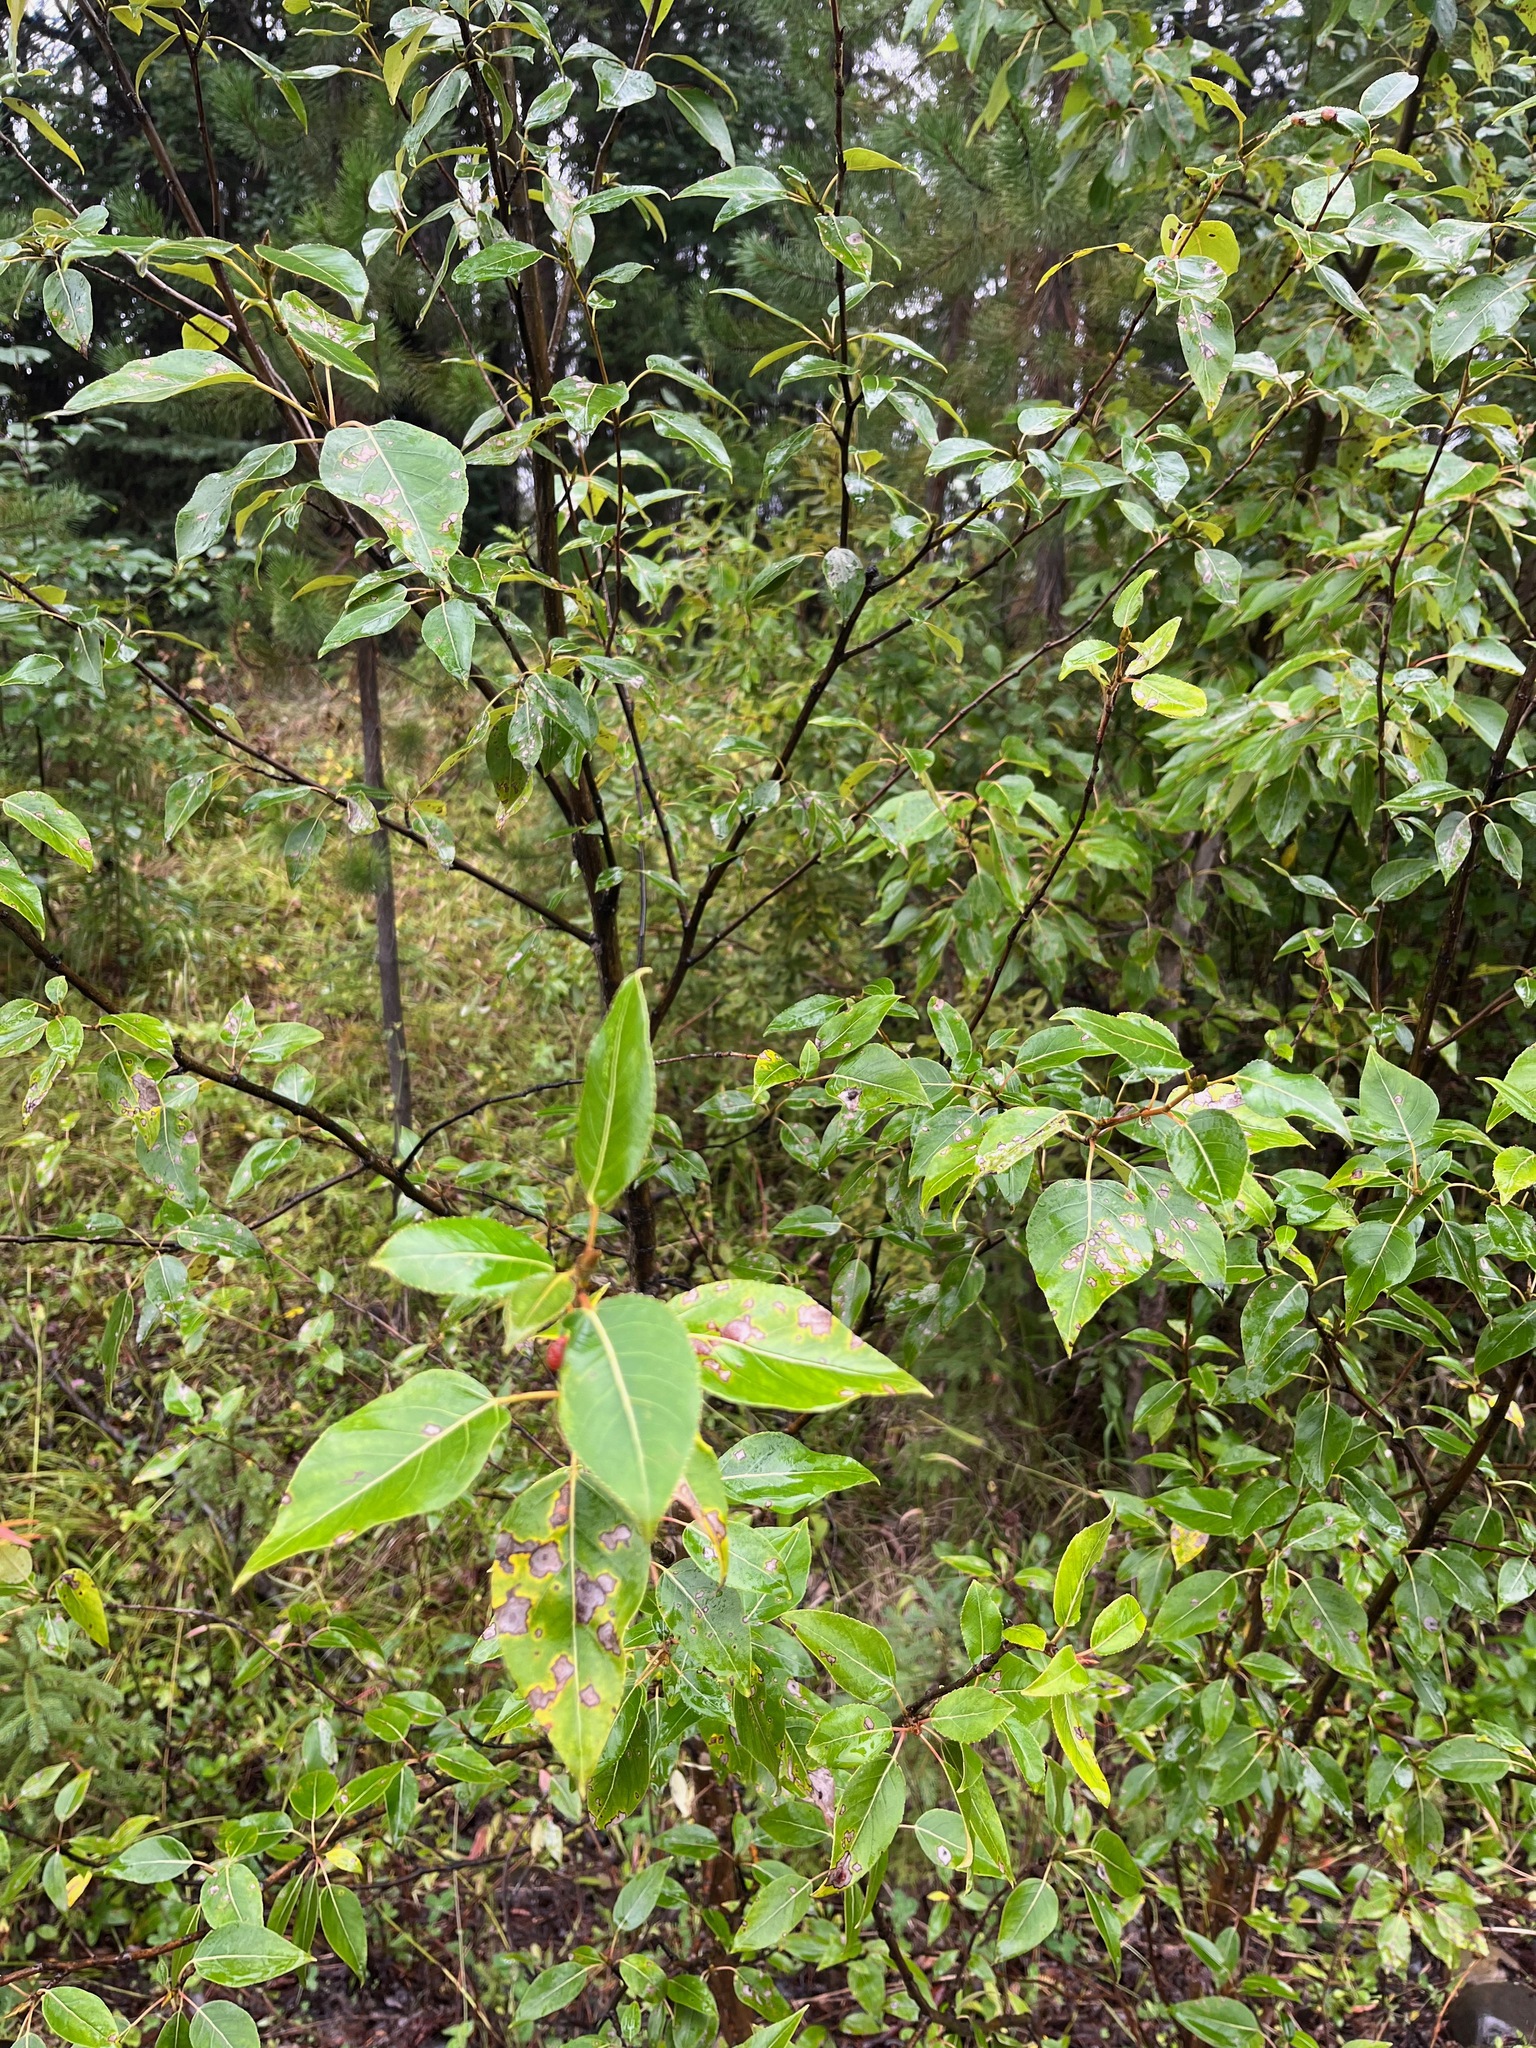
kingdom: Plantae
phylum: Tracheophyta
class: Magnoliopsida
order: Malpighiales
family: Salicaceae
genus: Populus
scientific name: Populus trichocarpa
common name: Black cottonwood
